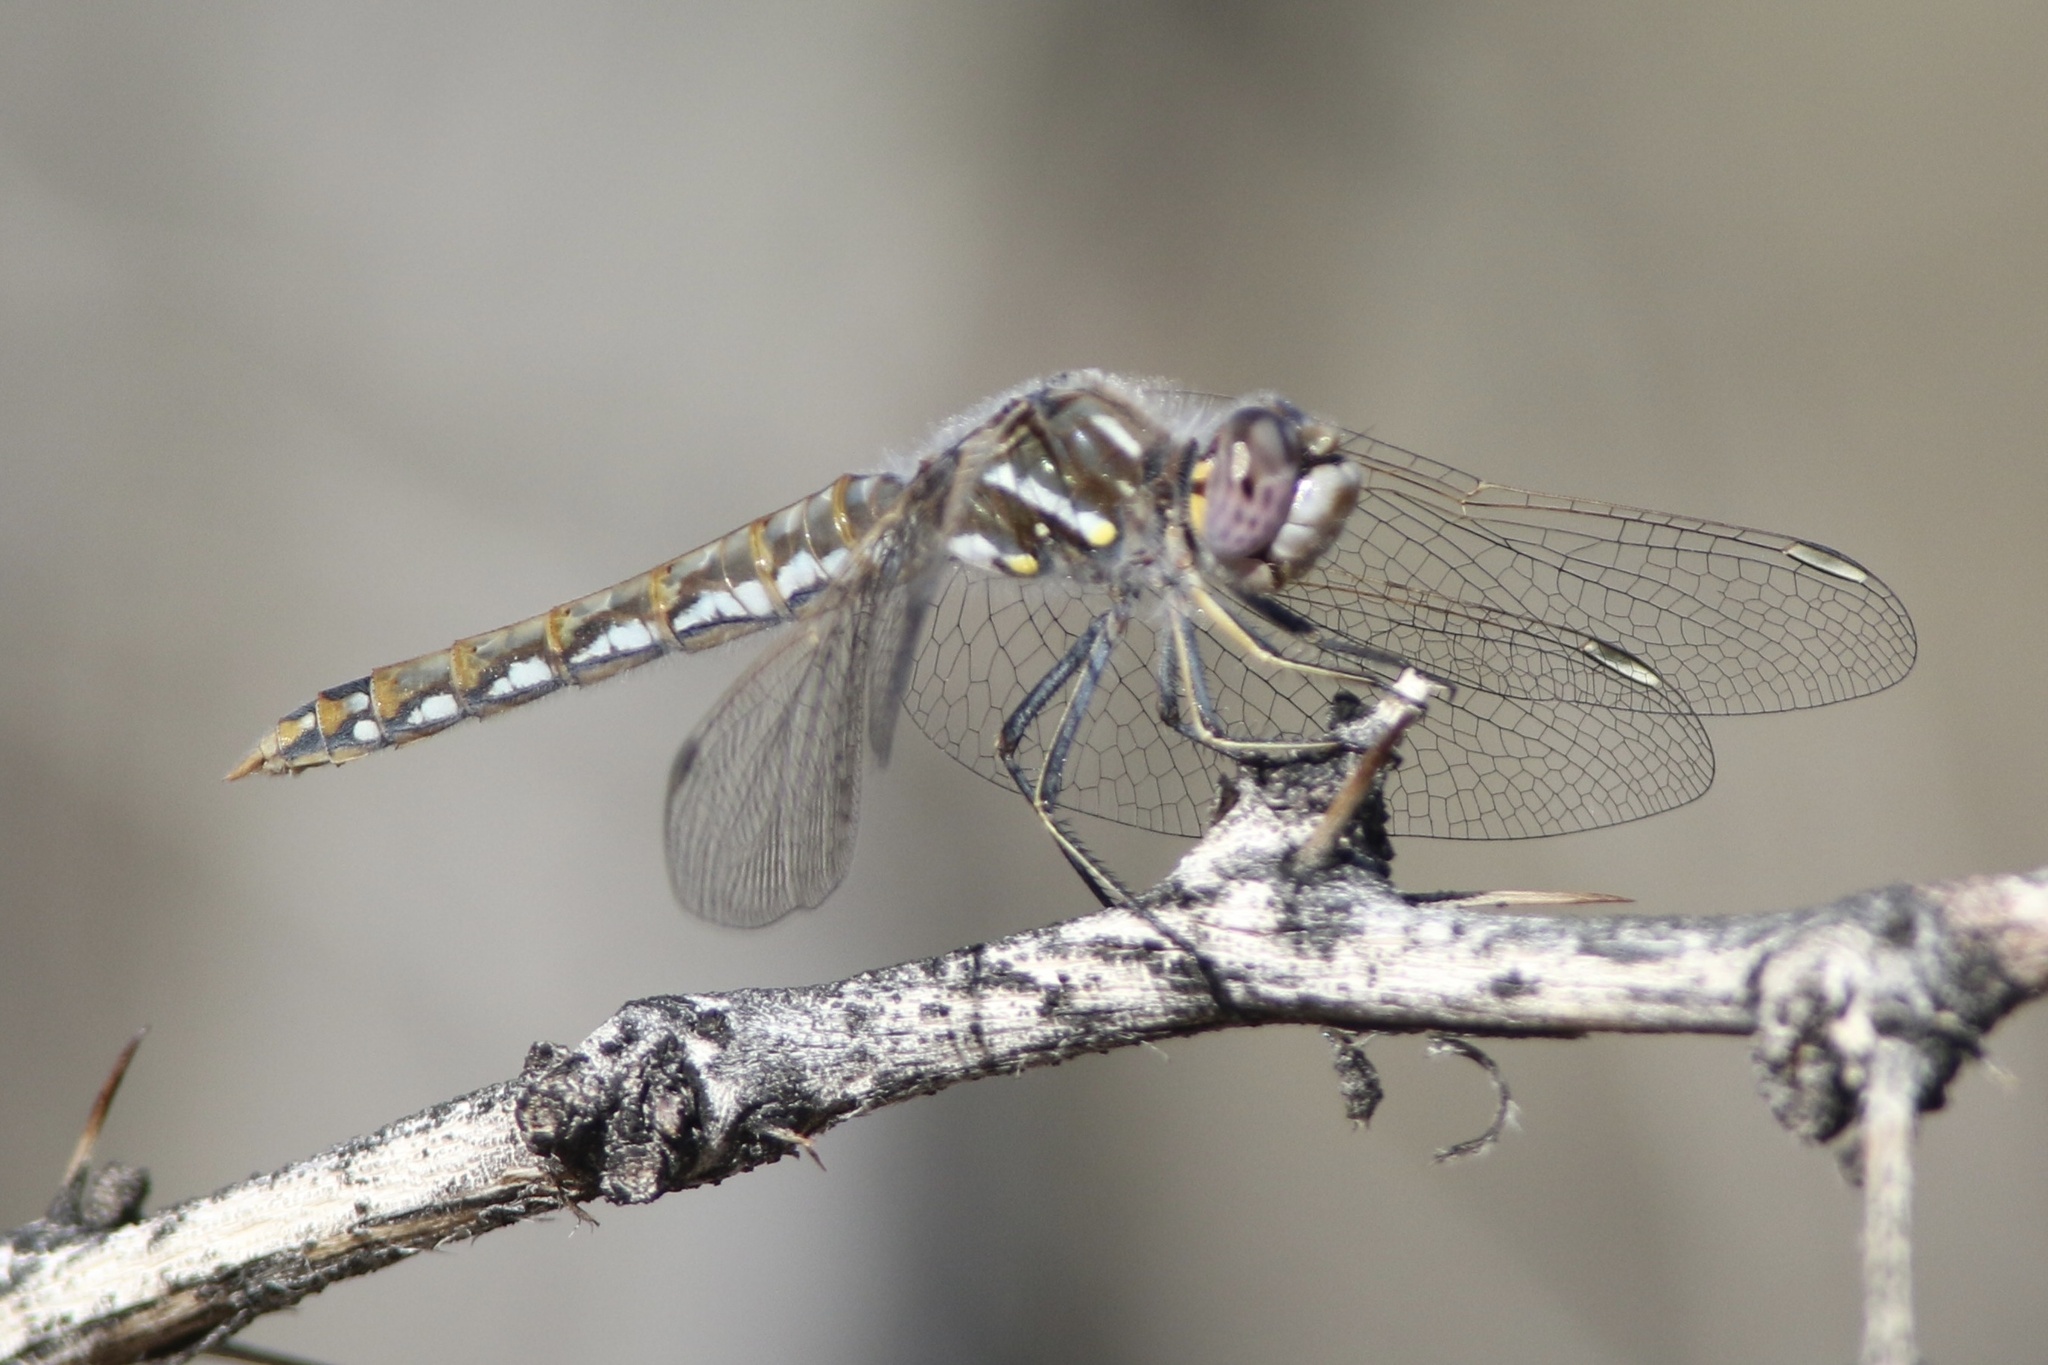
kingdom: Animalia
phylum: Arthropoda
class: Insecta
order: Odonata
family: Libellulidae
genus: Sympetrum
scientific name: Sympetrum corruptum
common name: Variegated meadowhawk
